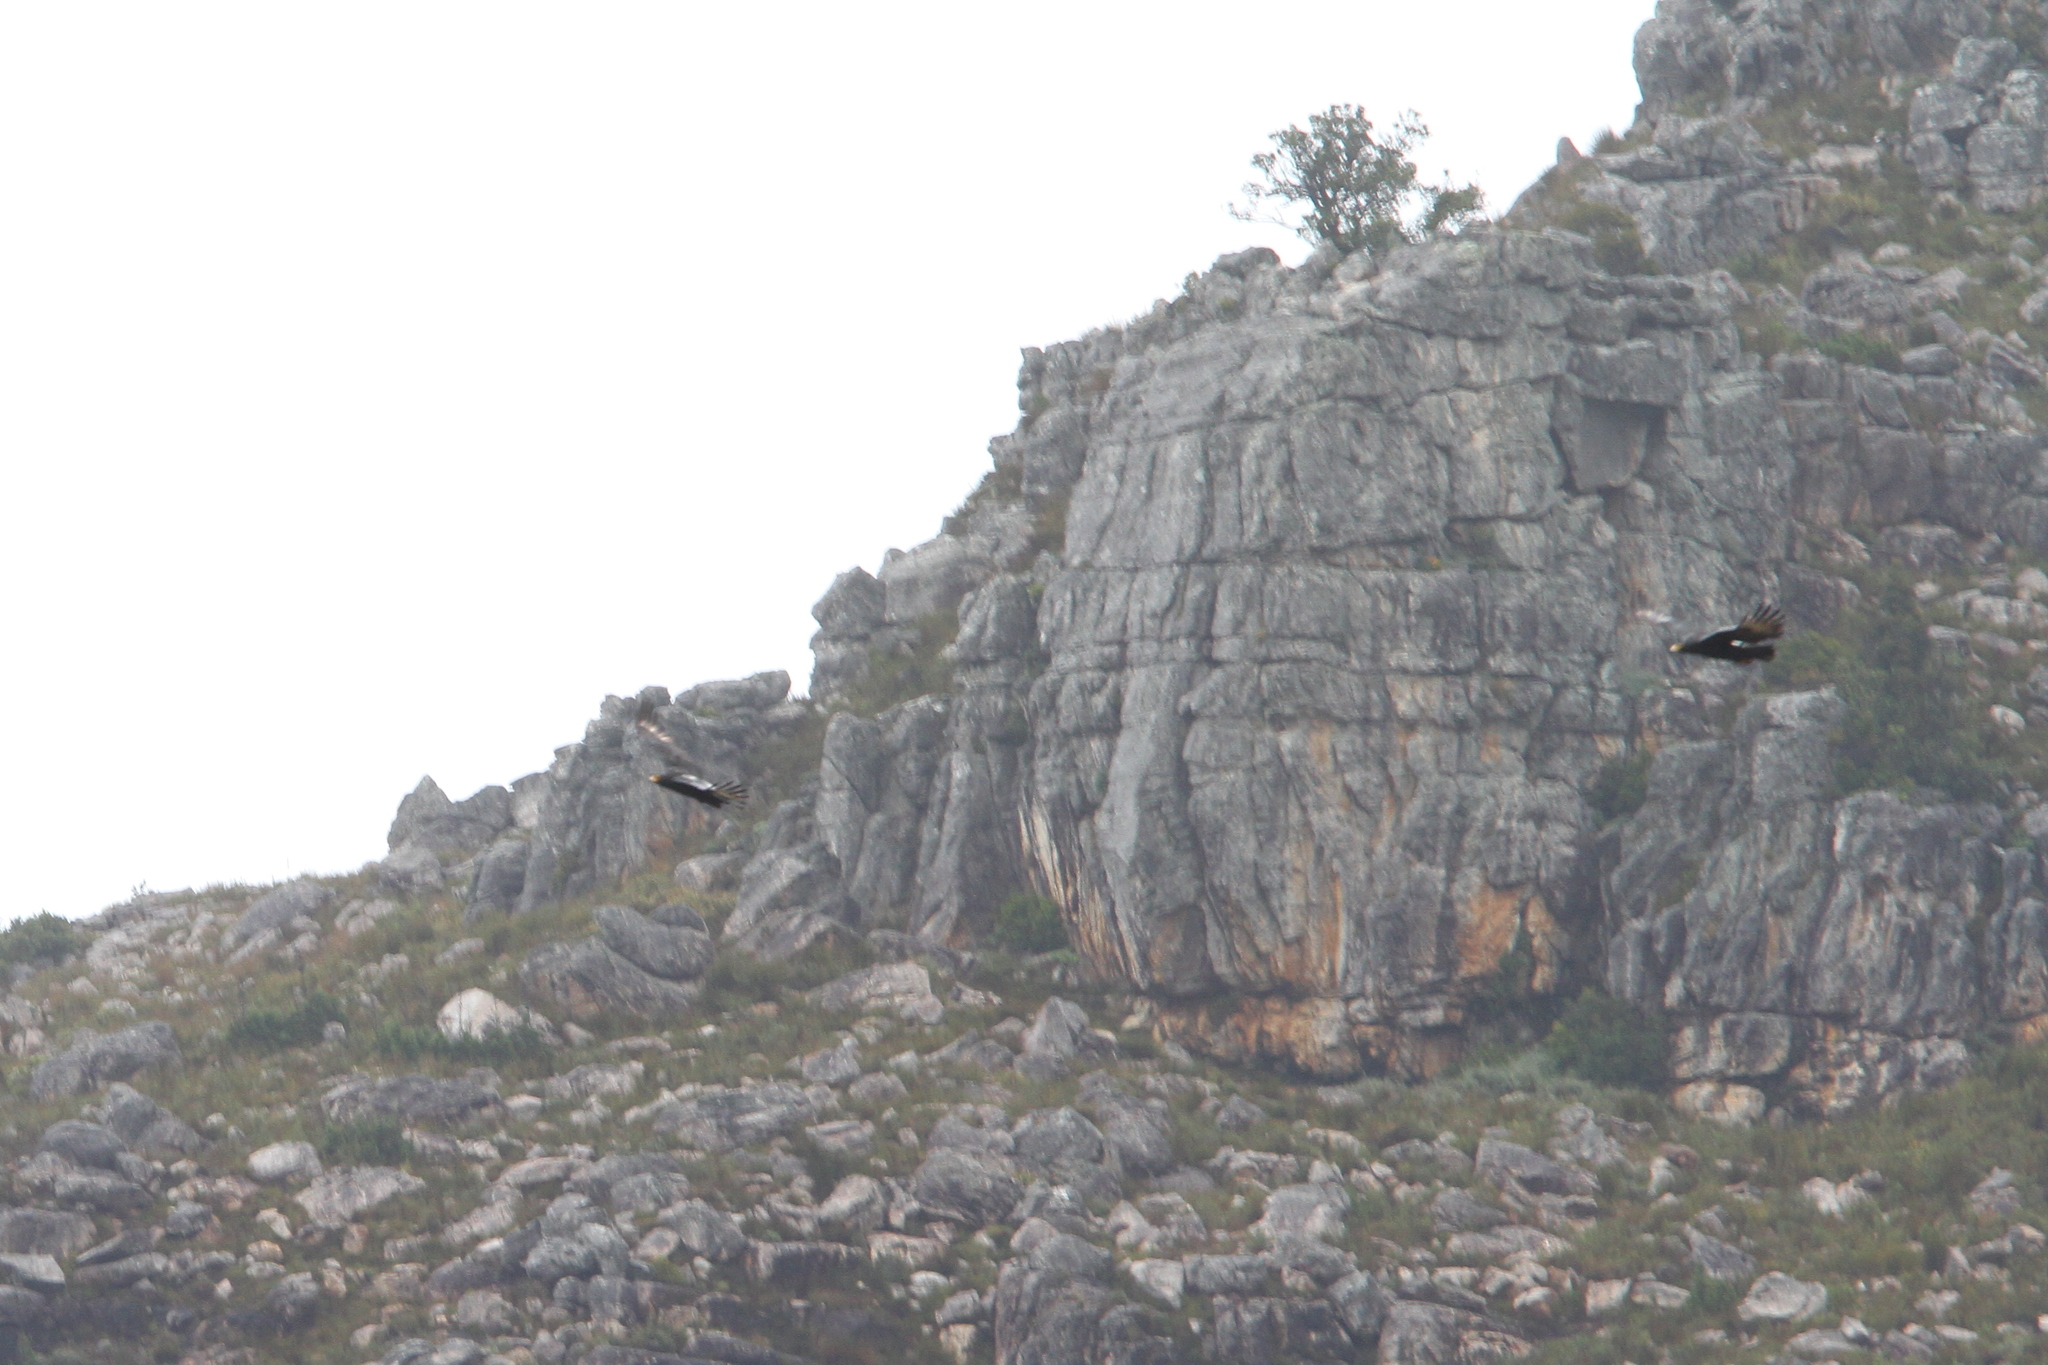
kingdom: Animalia
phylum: Chordata
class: Aves
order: Accipitriformes
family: Accipitridae
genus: Aquila
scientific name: Aquila verreauxii
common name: Verreaux's eagle
